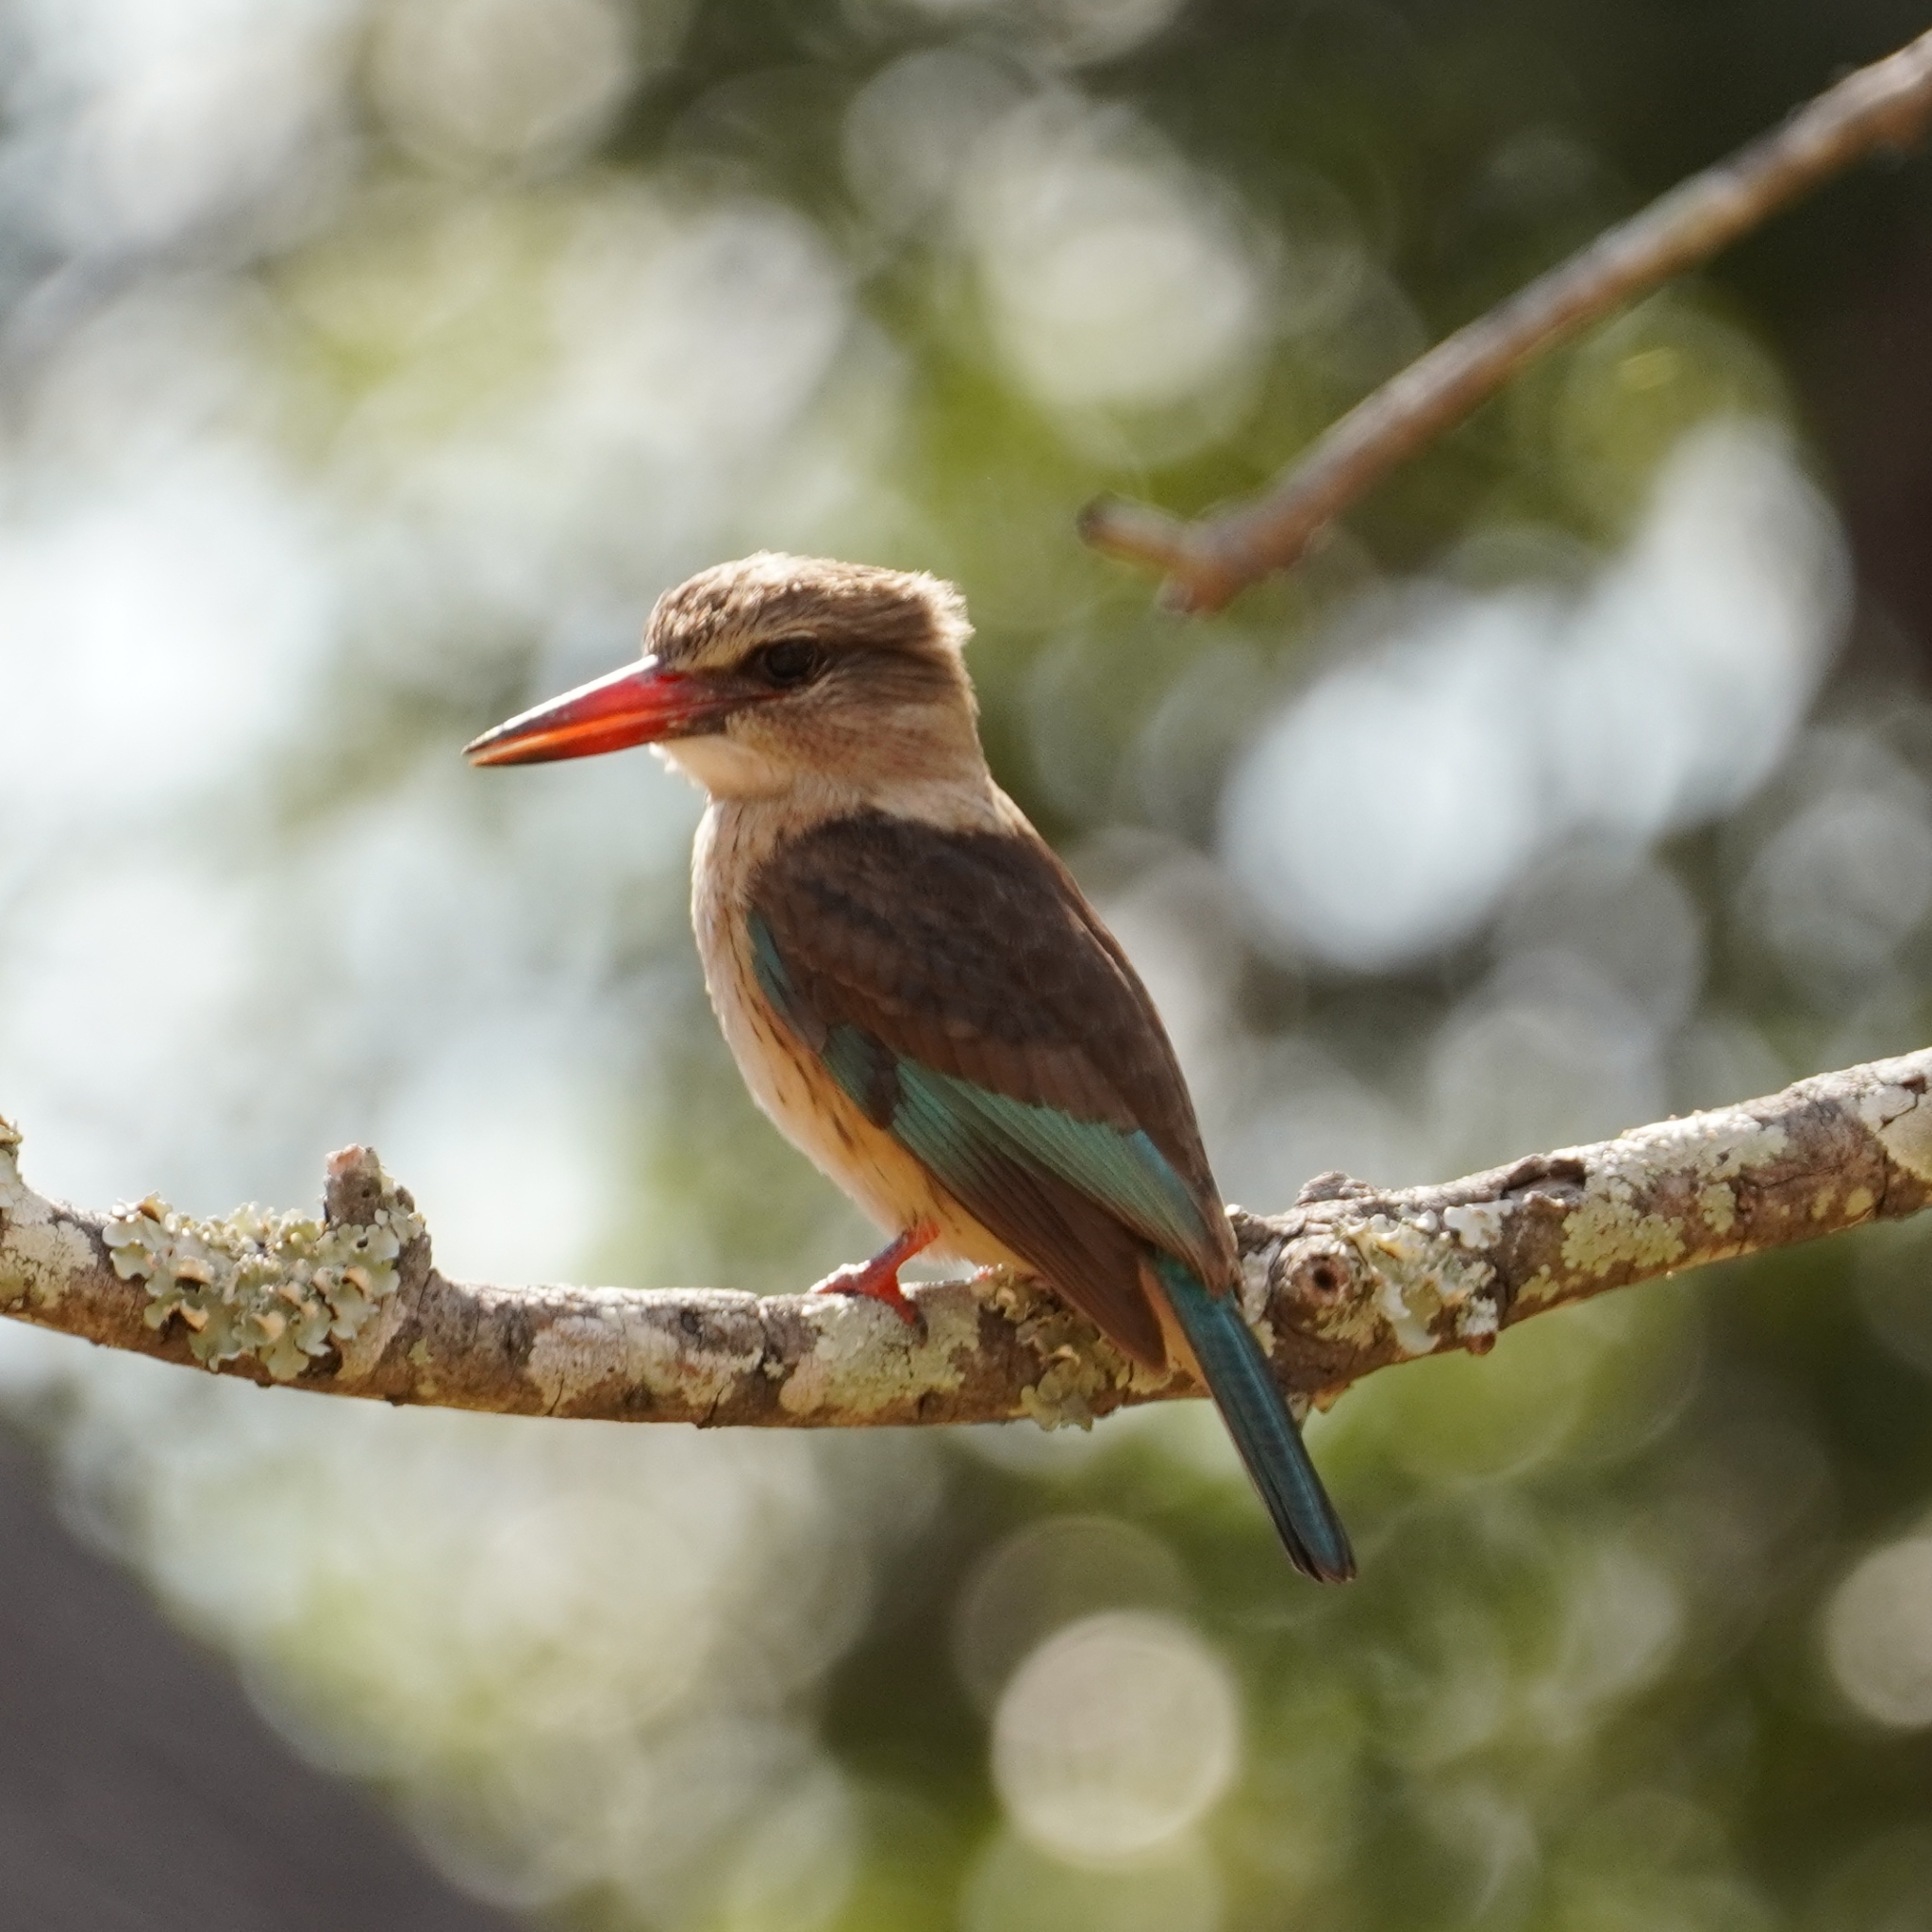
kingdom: Animalia
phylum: Chordata
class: Aves
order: Coraciiformes
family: Alcedinidae
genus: Halcyon
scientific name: Halcyon albiventris
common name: Brown-hooded kingfisher
